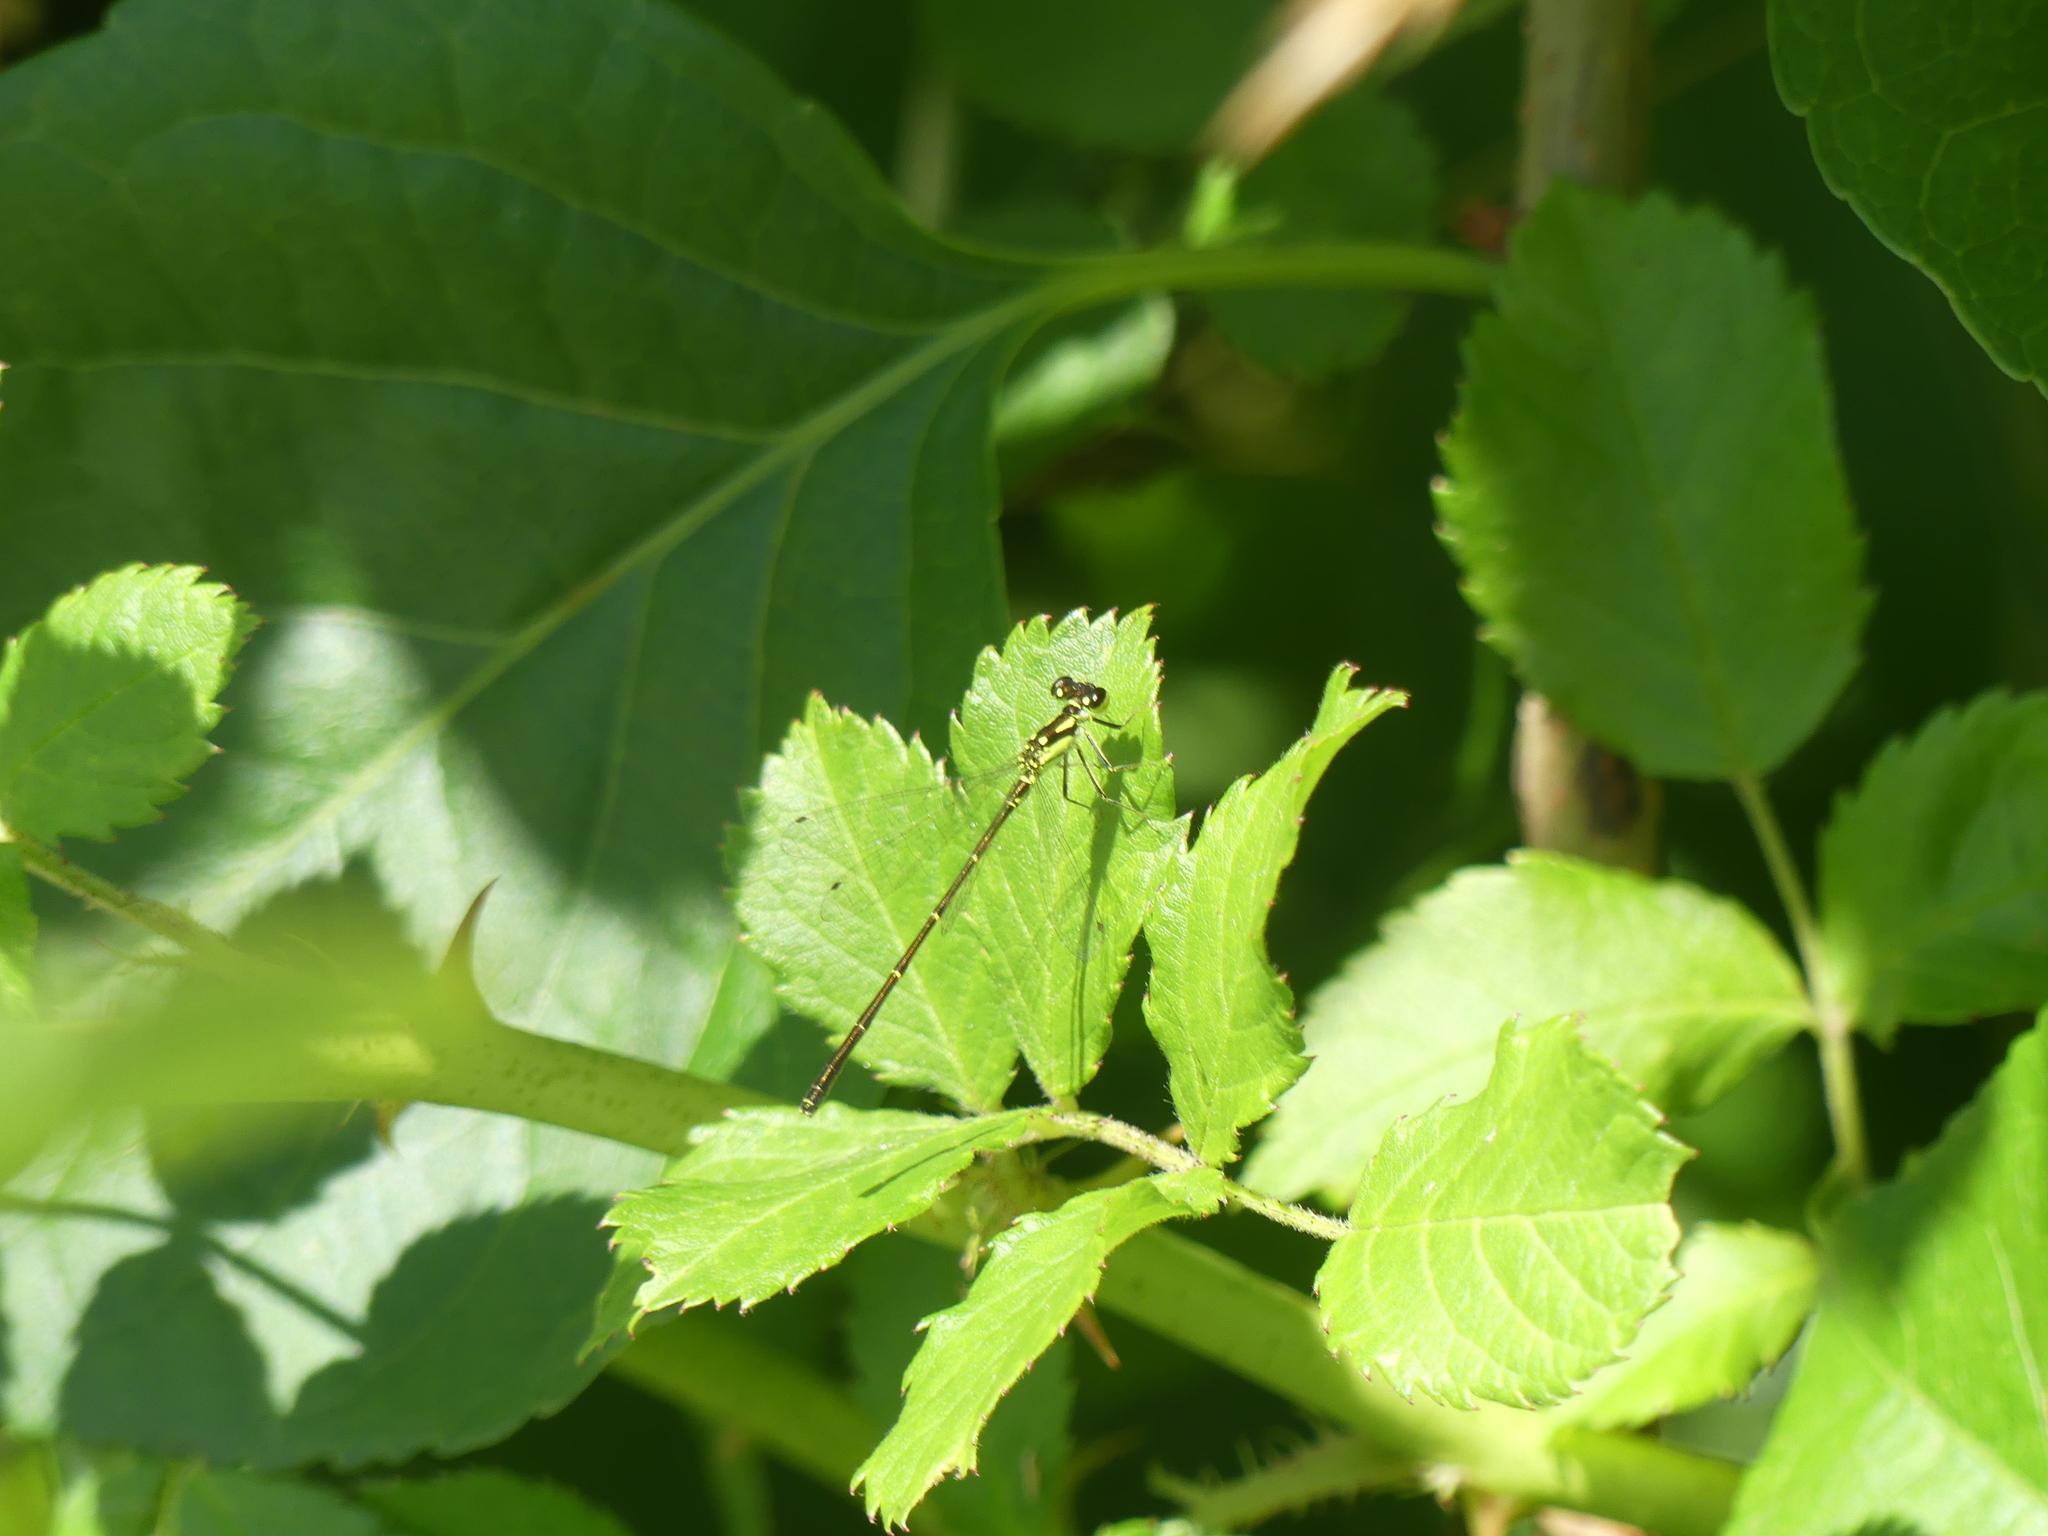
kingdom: Animalia
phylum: Arthropoda
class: Insecta
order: Odonata
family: Coenagrionidae
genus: Ischnura
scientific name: Ischnura posita
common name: Fragile forktail
